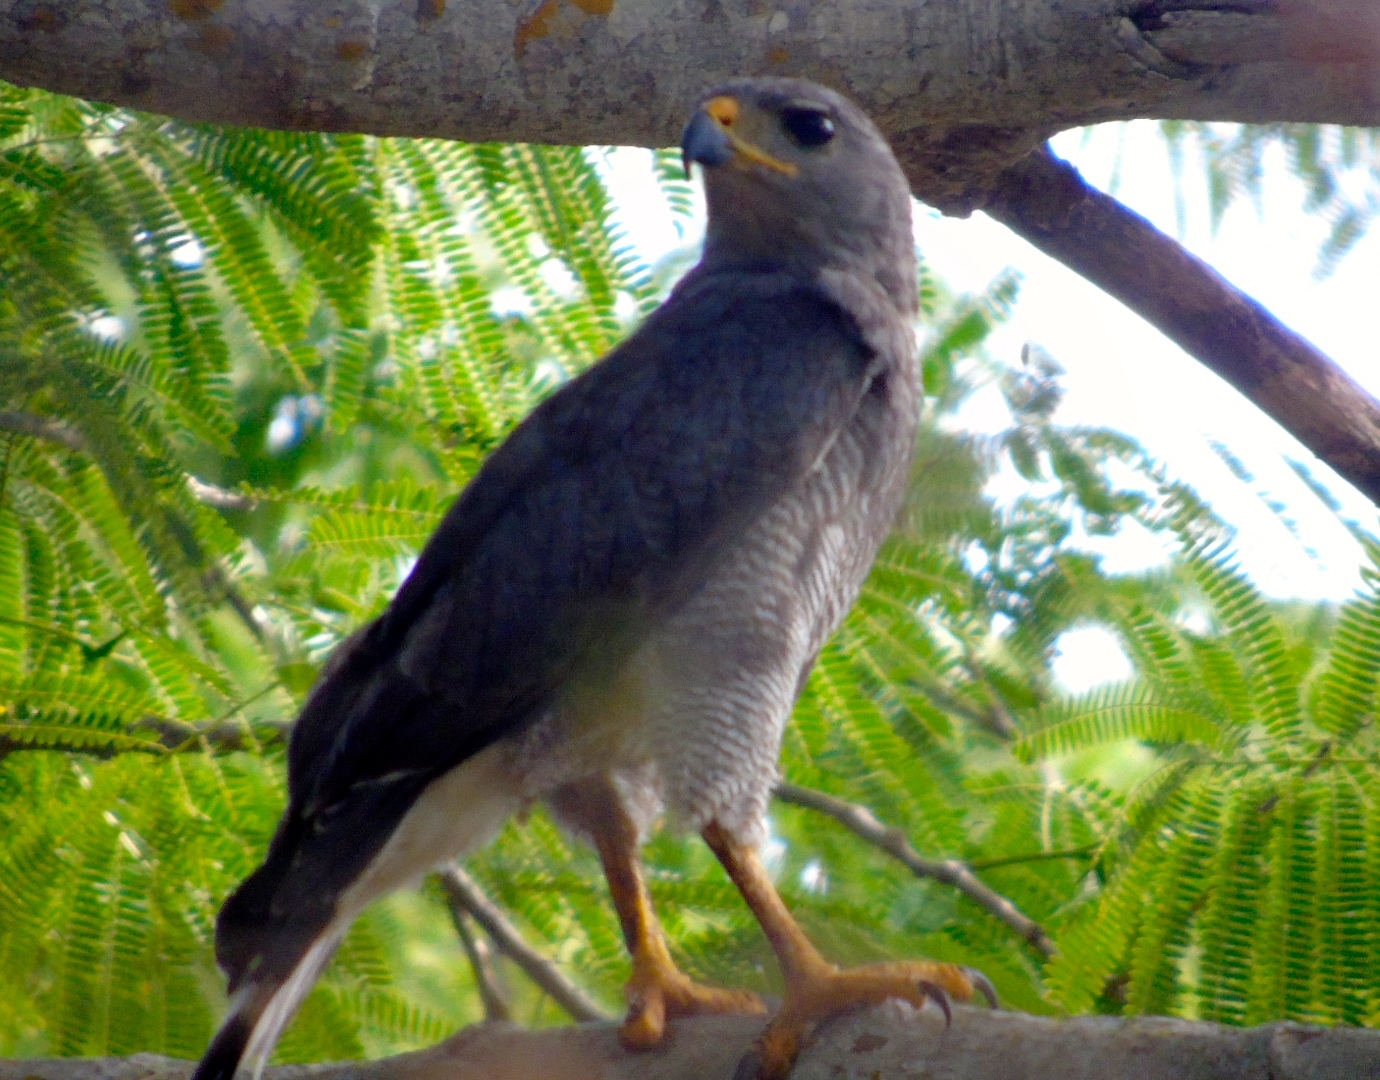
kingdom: Animalia
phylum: Chordata
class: Aves
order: Accipitriformes
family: Accipitridae
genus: Buteo
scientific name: Buteo nitidus
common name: Grey-lined hawk
